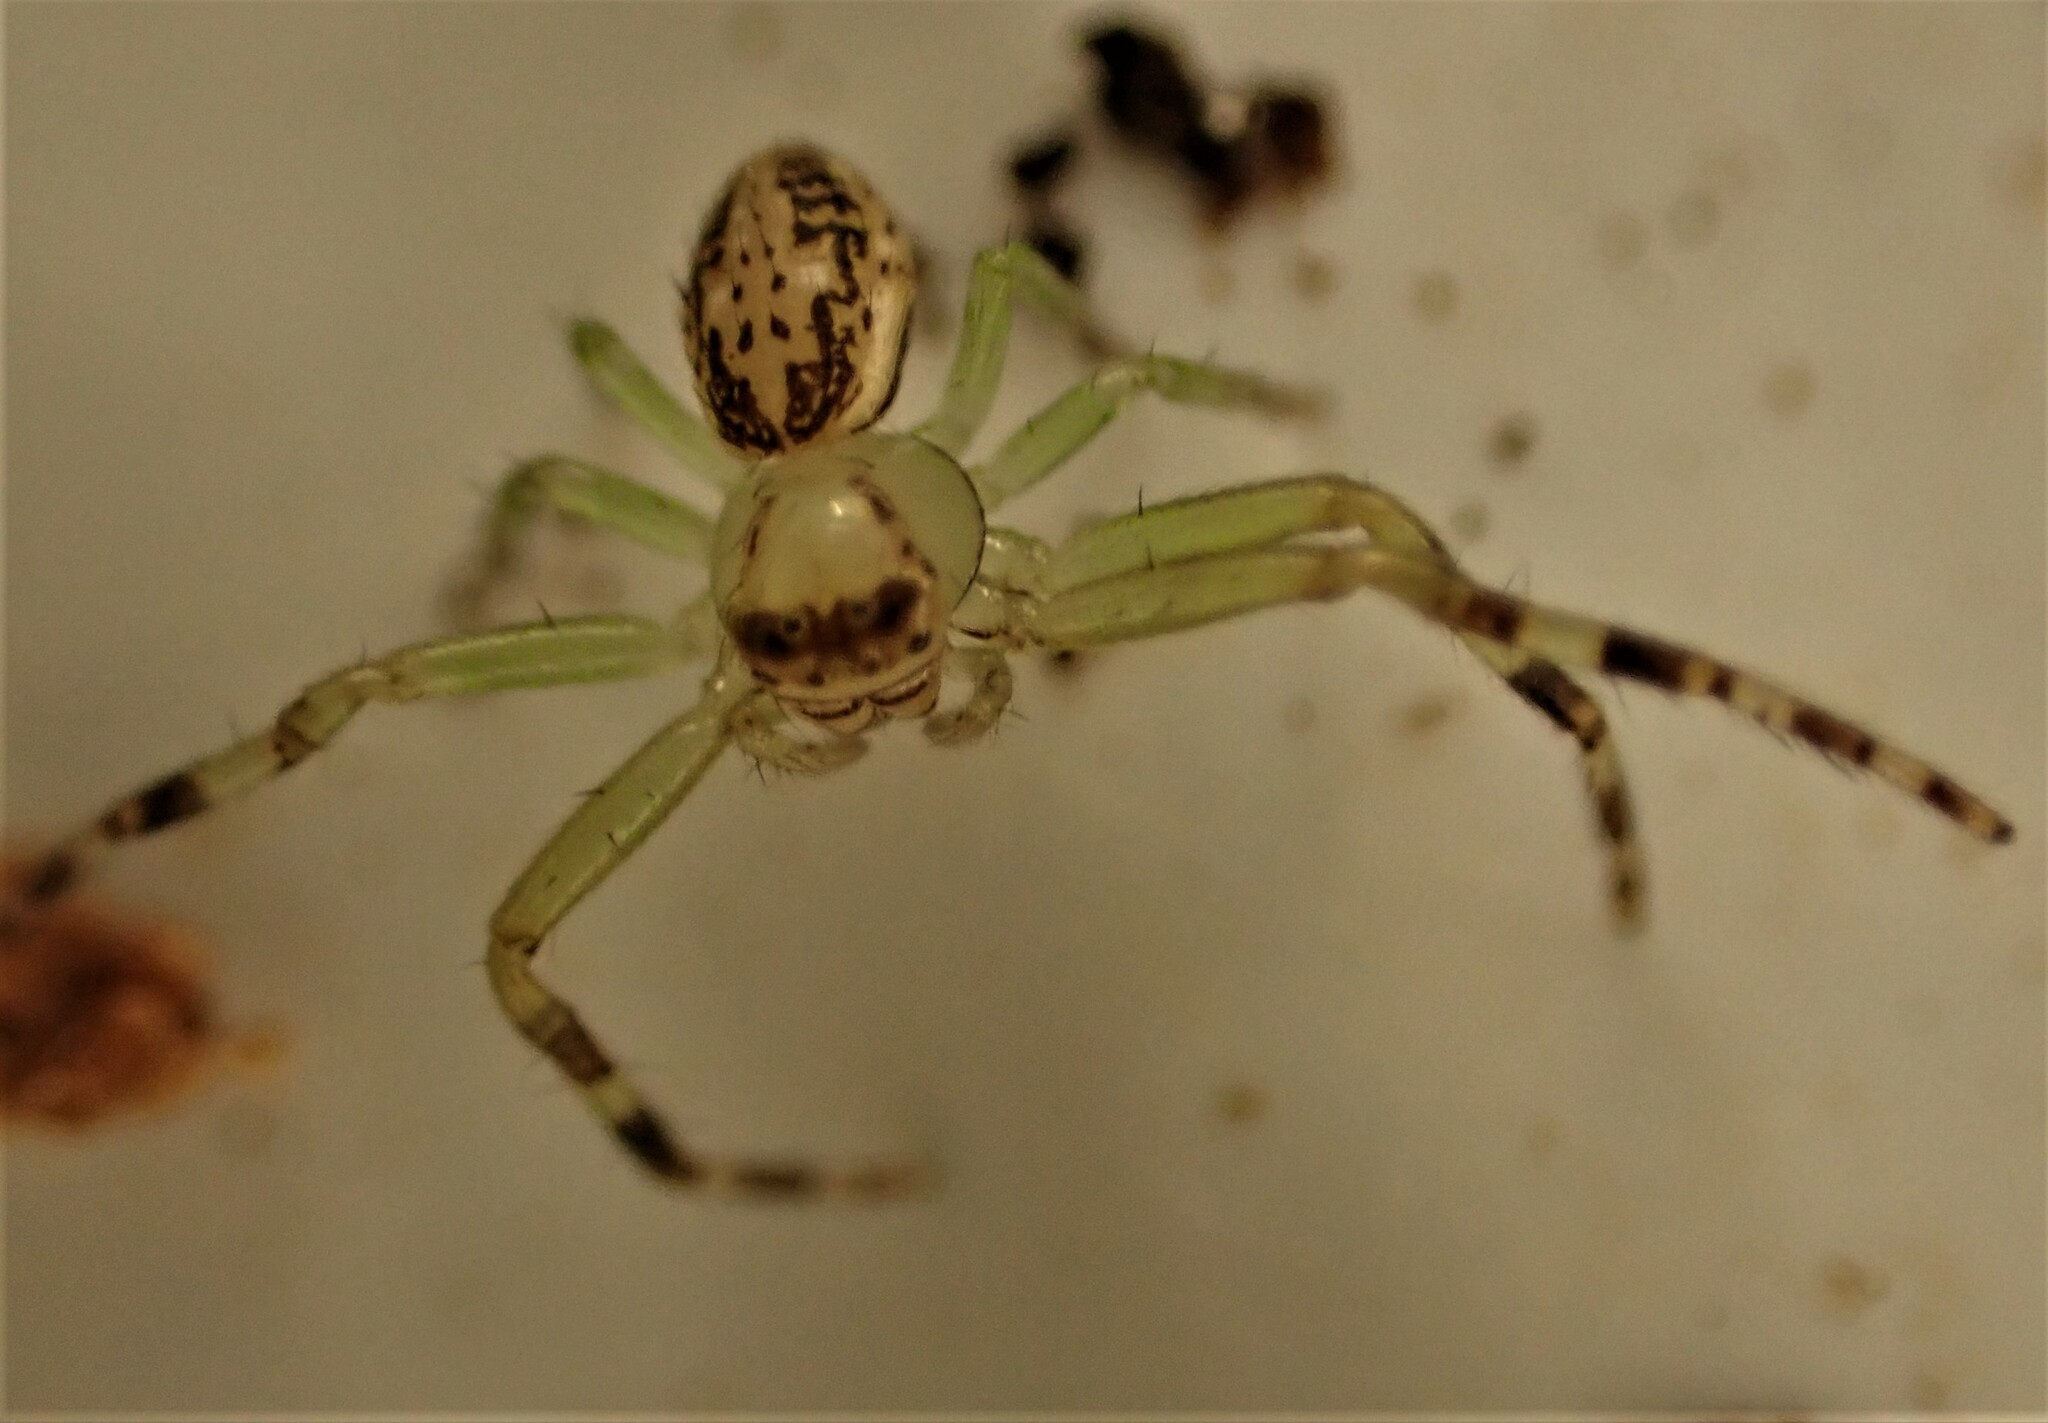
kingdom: Animalia
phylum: Arthropoda
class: Arachnida
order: Araneae
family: Thomisidae
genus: Diaea
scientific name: Diaea ambara
